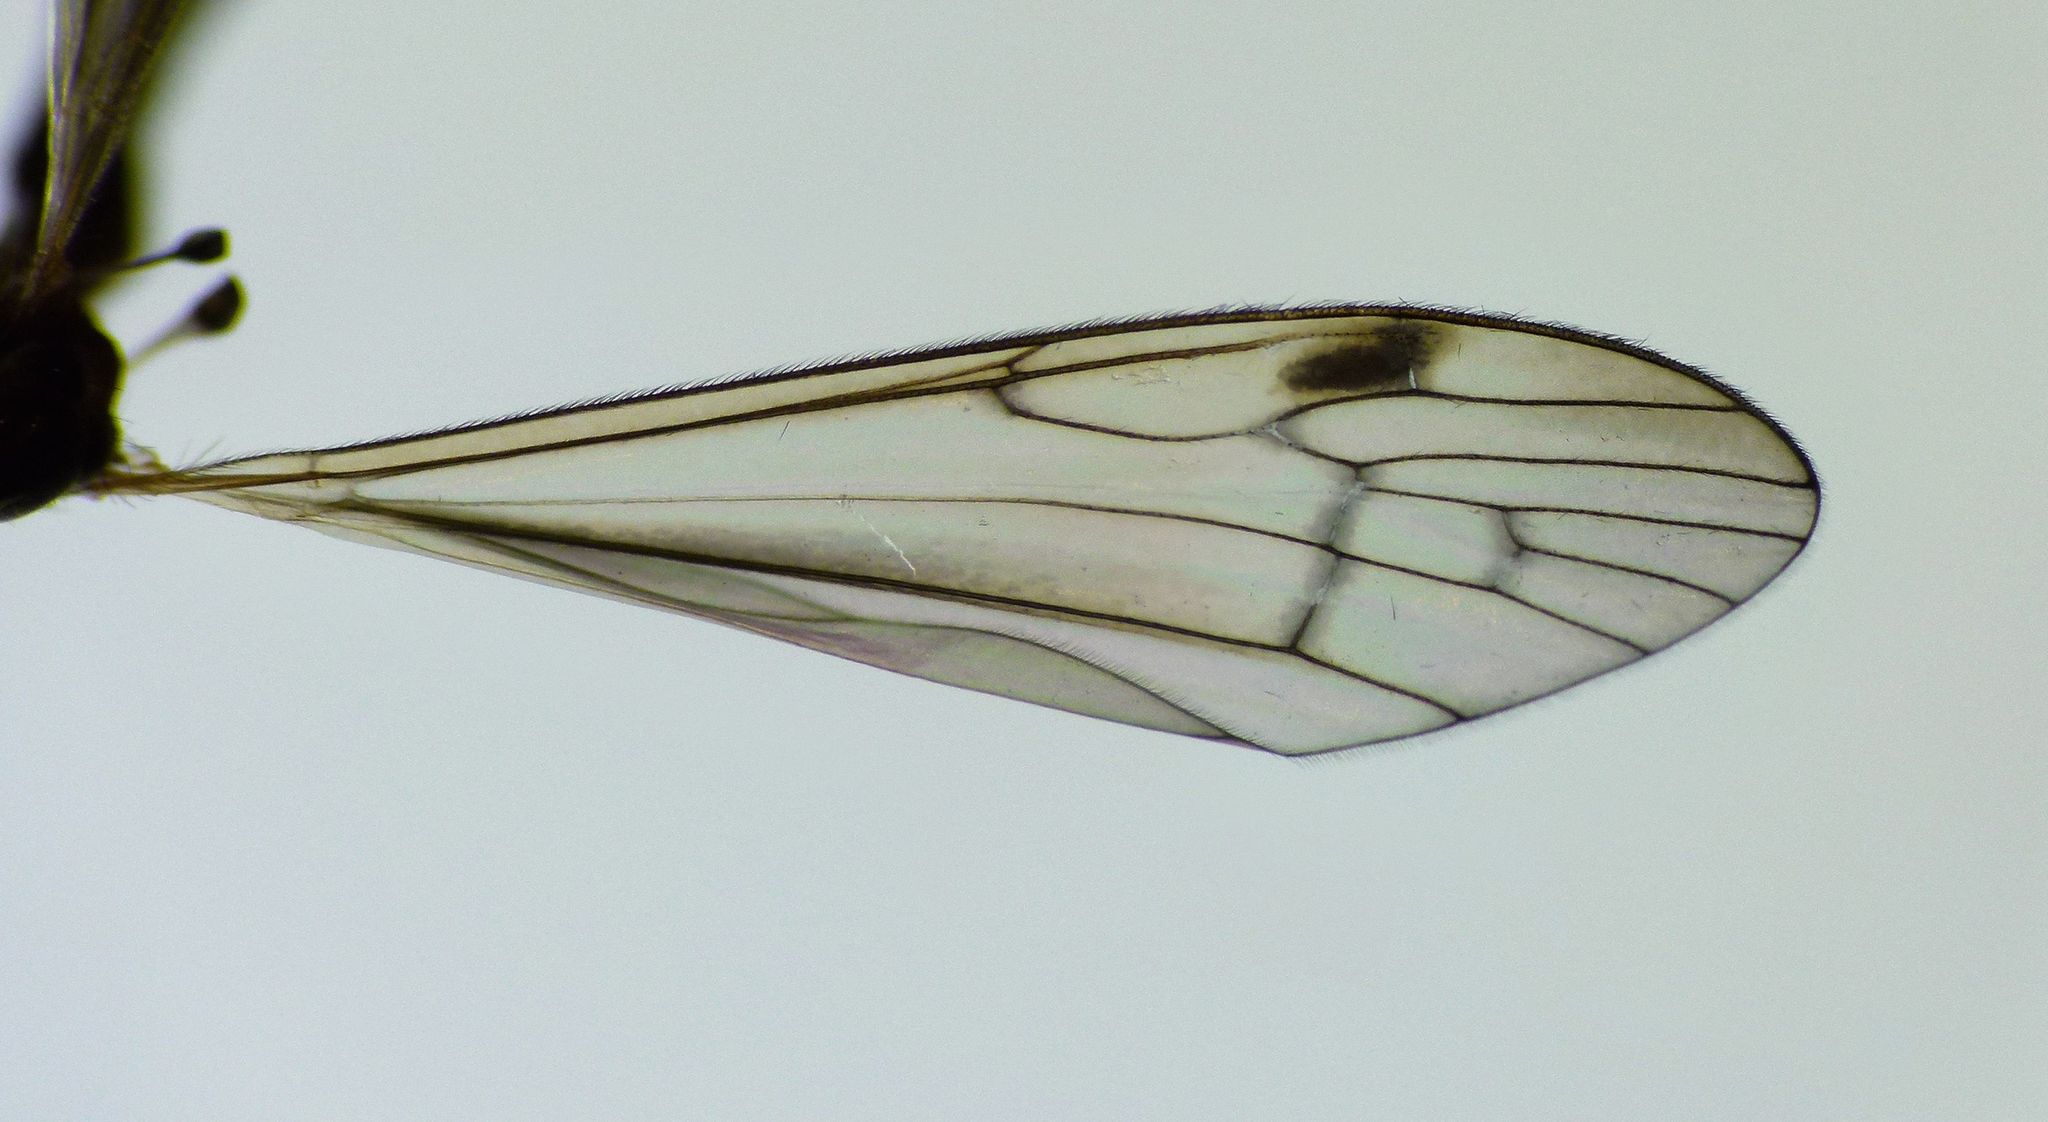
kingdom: Animalia
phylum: Arthropoda
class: Insecta
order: Diptera
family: Limoniidae
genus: Dicranomyia
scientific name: Dicranomyia cubitalis
